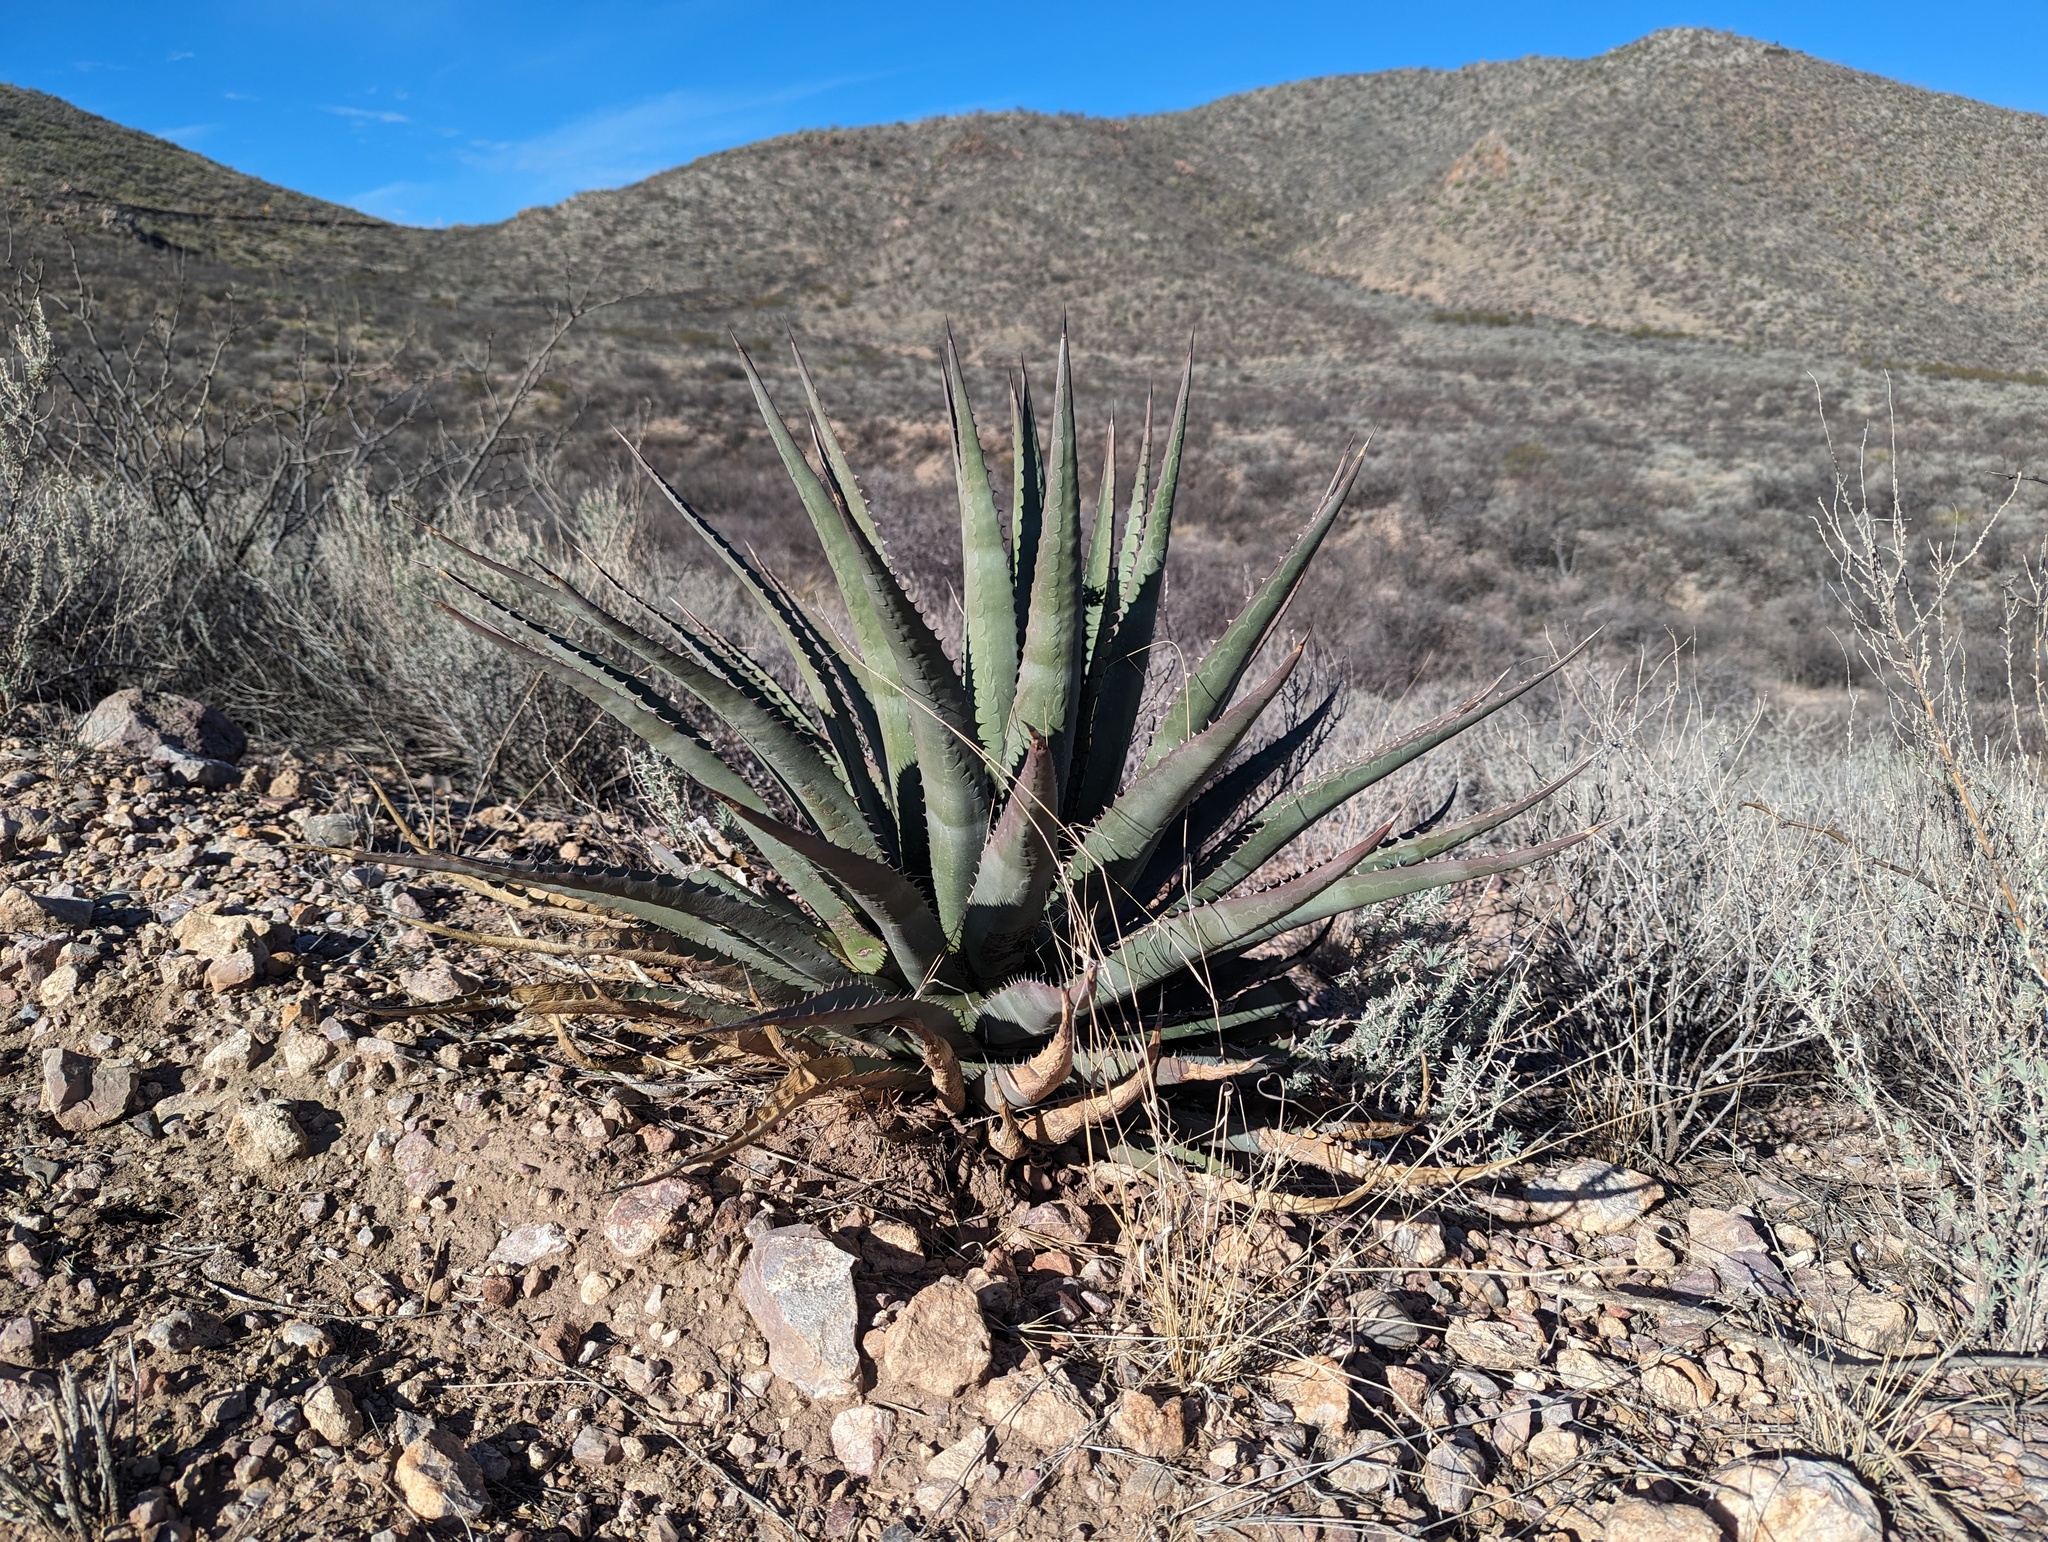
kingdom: Plantae
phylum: Tracheophyta
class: Liliopsida
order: Asparagales
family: Asparagaceae
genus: Agave
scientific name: Agave palmeri
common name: Palmer agave
